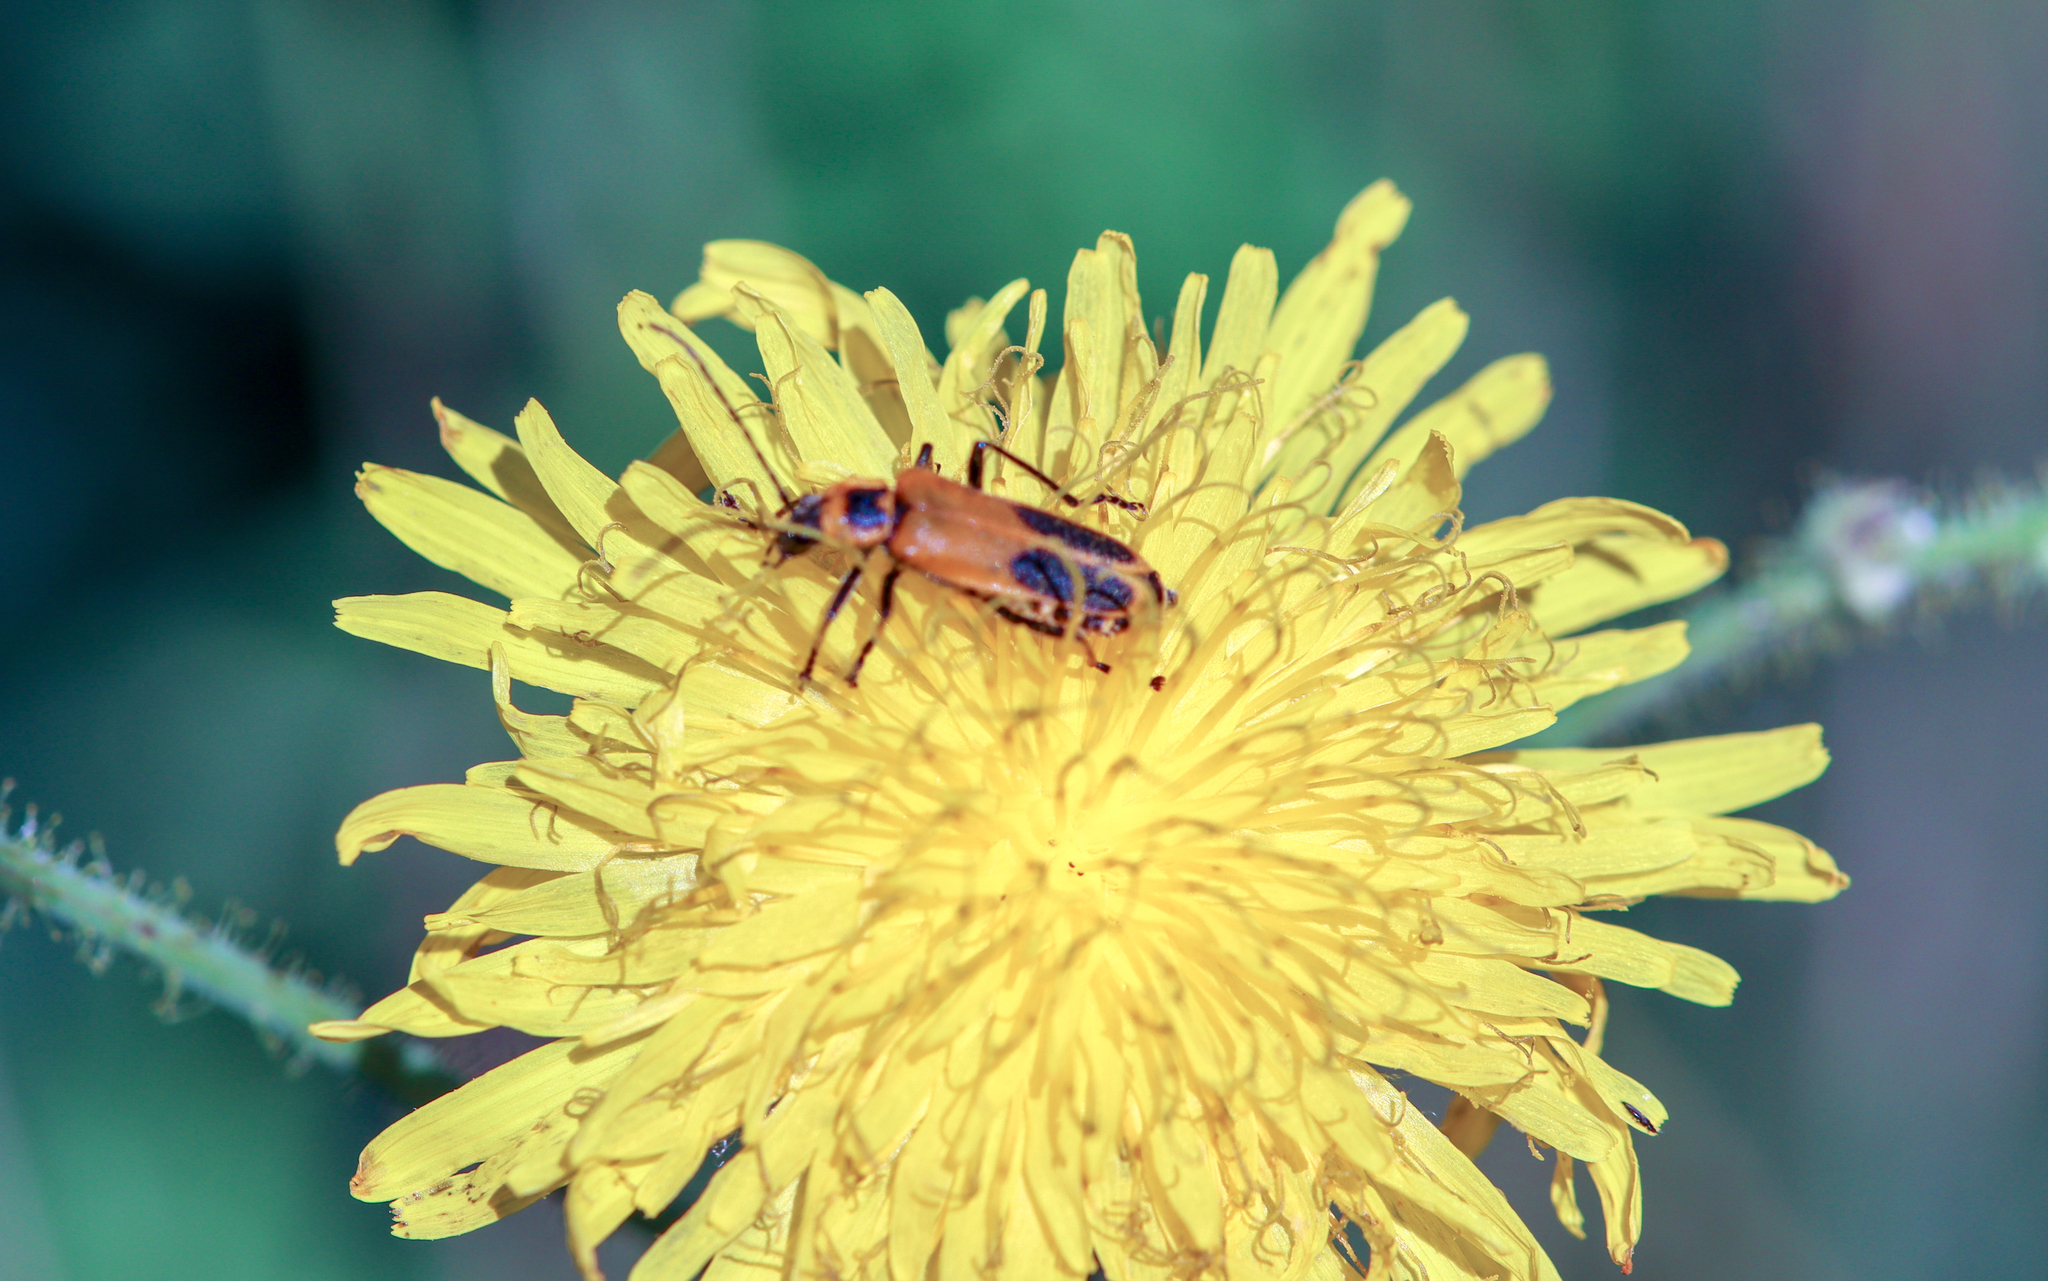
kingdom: Animalia
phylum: Arthropoda
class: Insecta
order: Coleoptera
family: Cantharidae
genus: Chauliognathus
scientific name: Chauliognathus pensylvanicus
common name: Goldenrod soldier beetle
